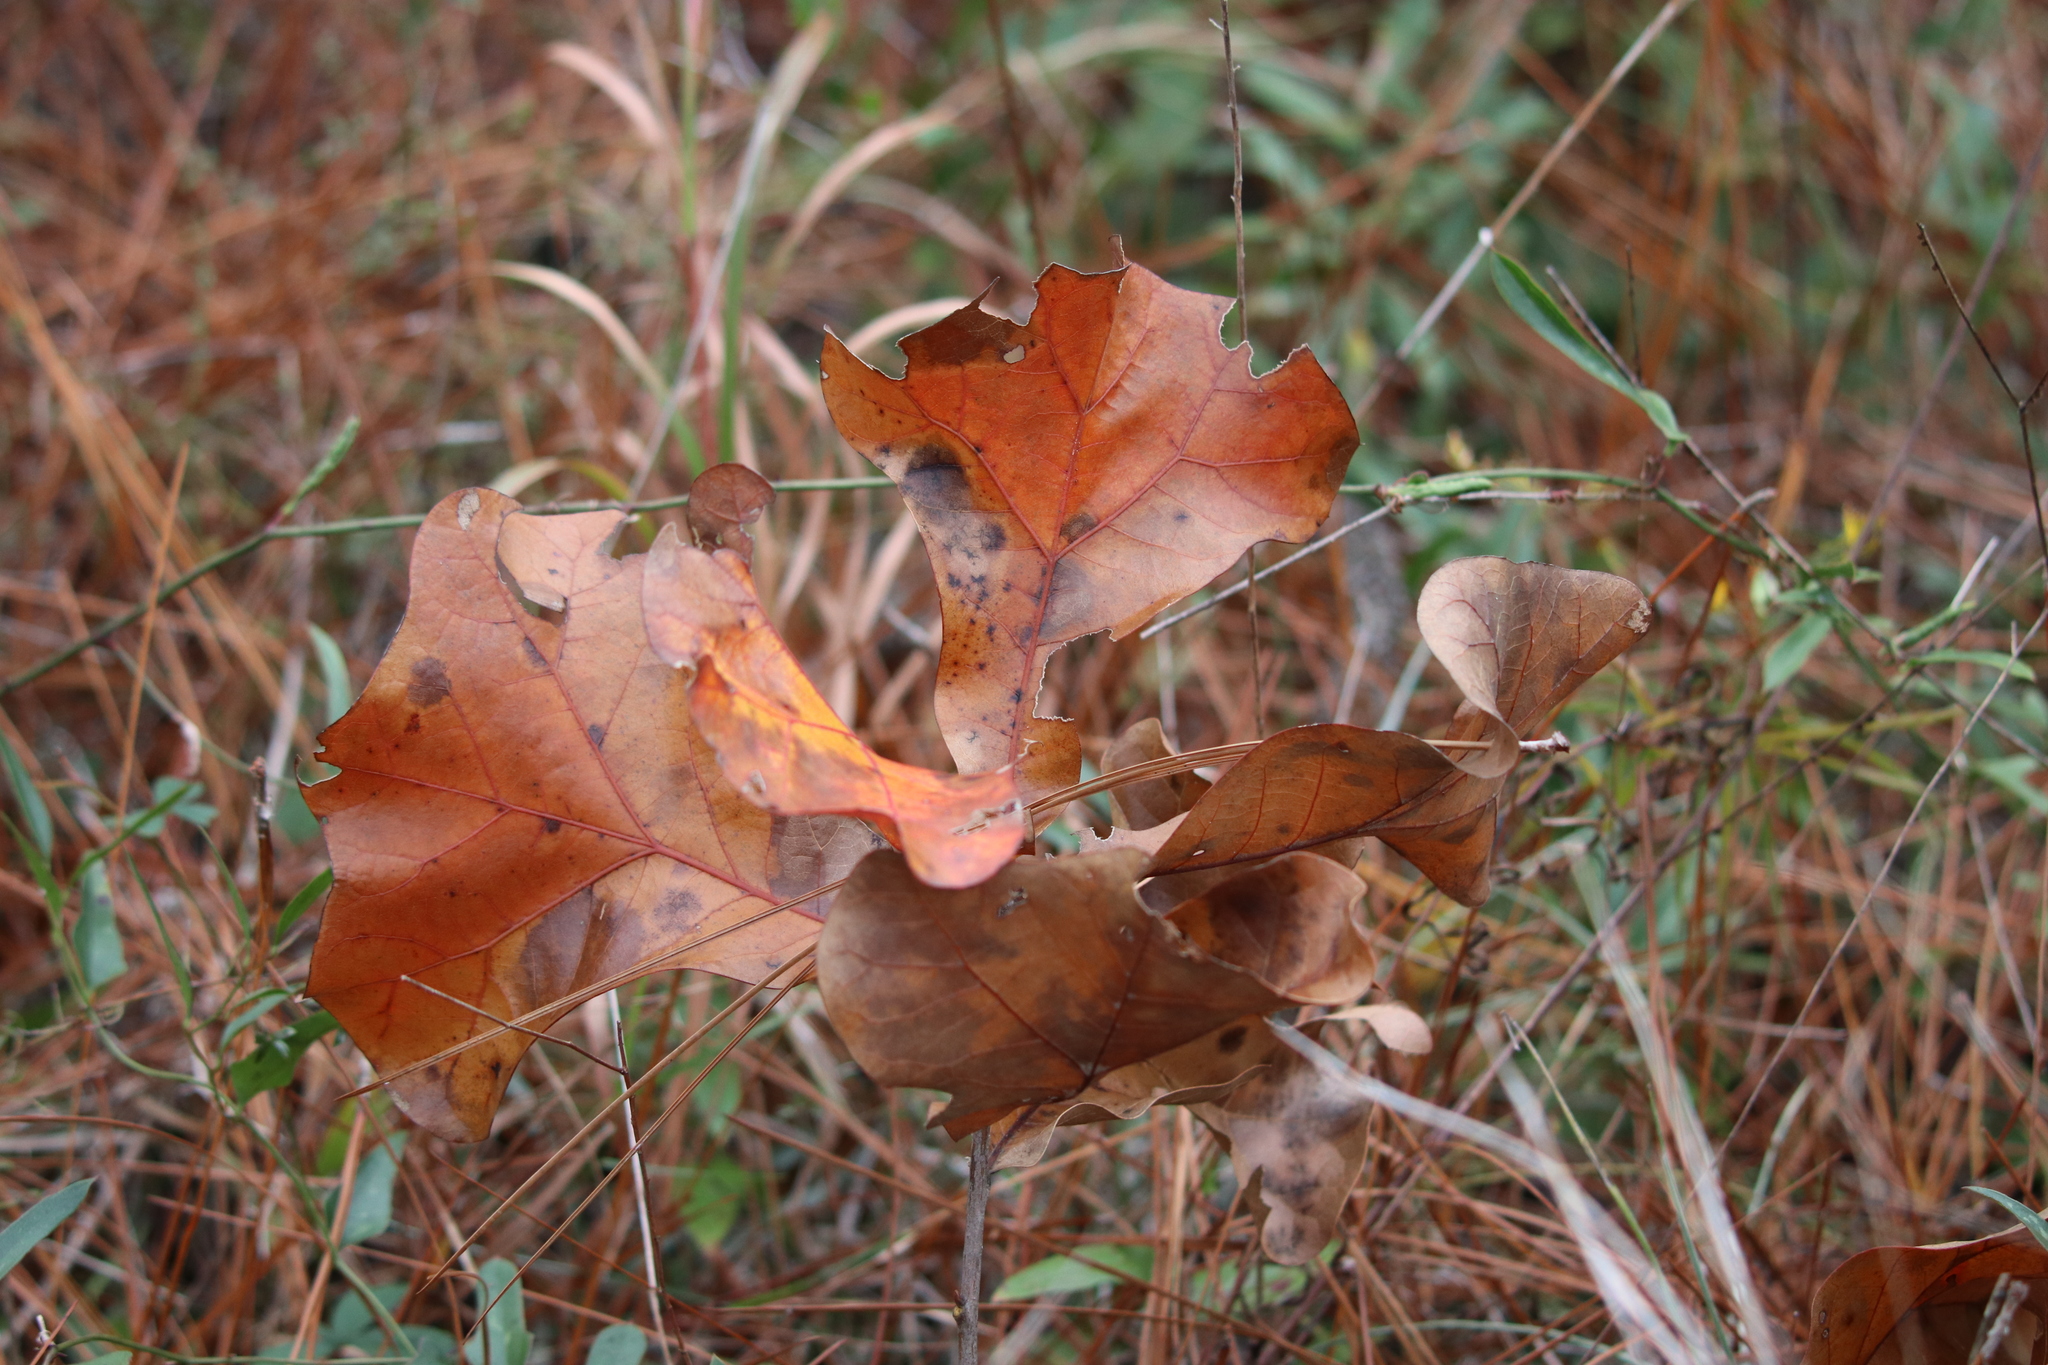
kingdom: Plantae
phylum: Tracheophyta
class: Magnoliopsida
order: Fagales
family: Fagaceae
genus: Quercus
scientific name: Quercus marilandica
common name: Blackjack oak
